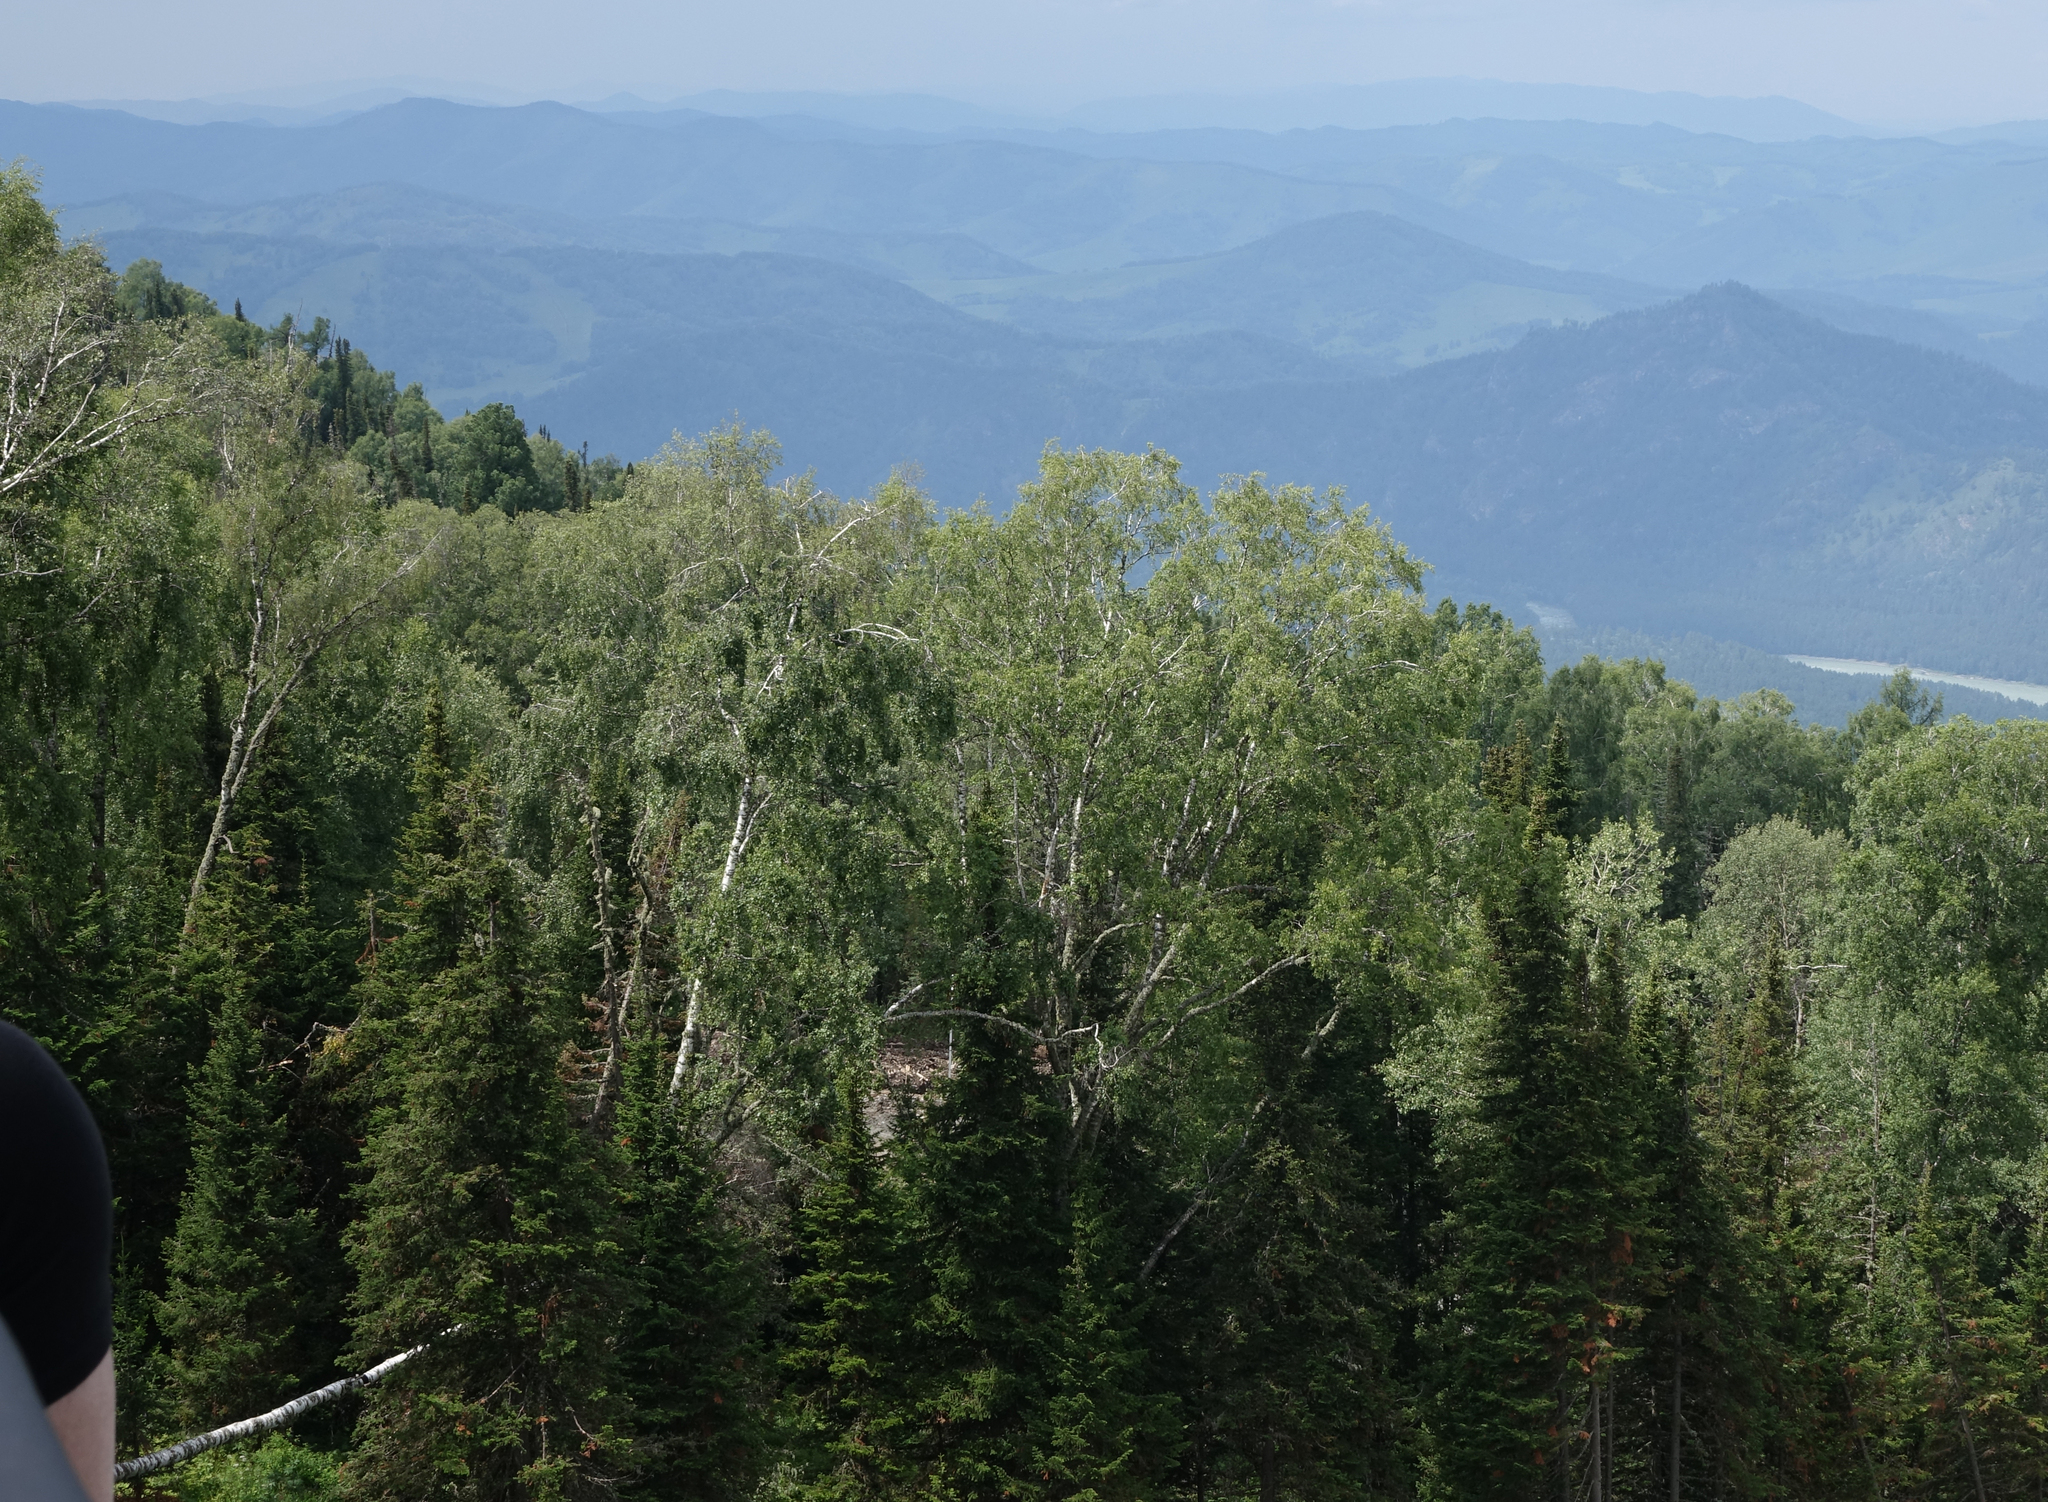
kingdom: Plantae
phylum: Tracheophyta
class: Pinopsida
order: Pinales
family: Pinaceae
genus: Abies
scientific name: Abies sibirica
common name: Siberian fir
